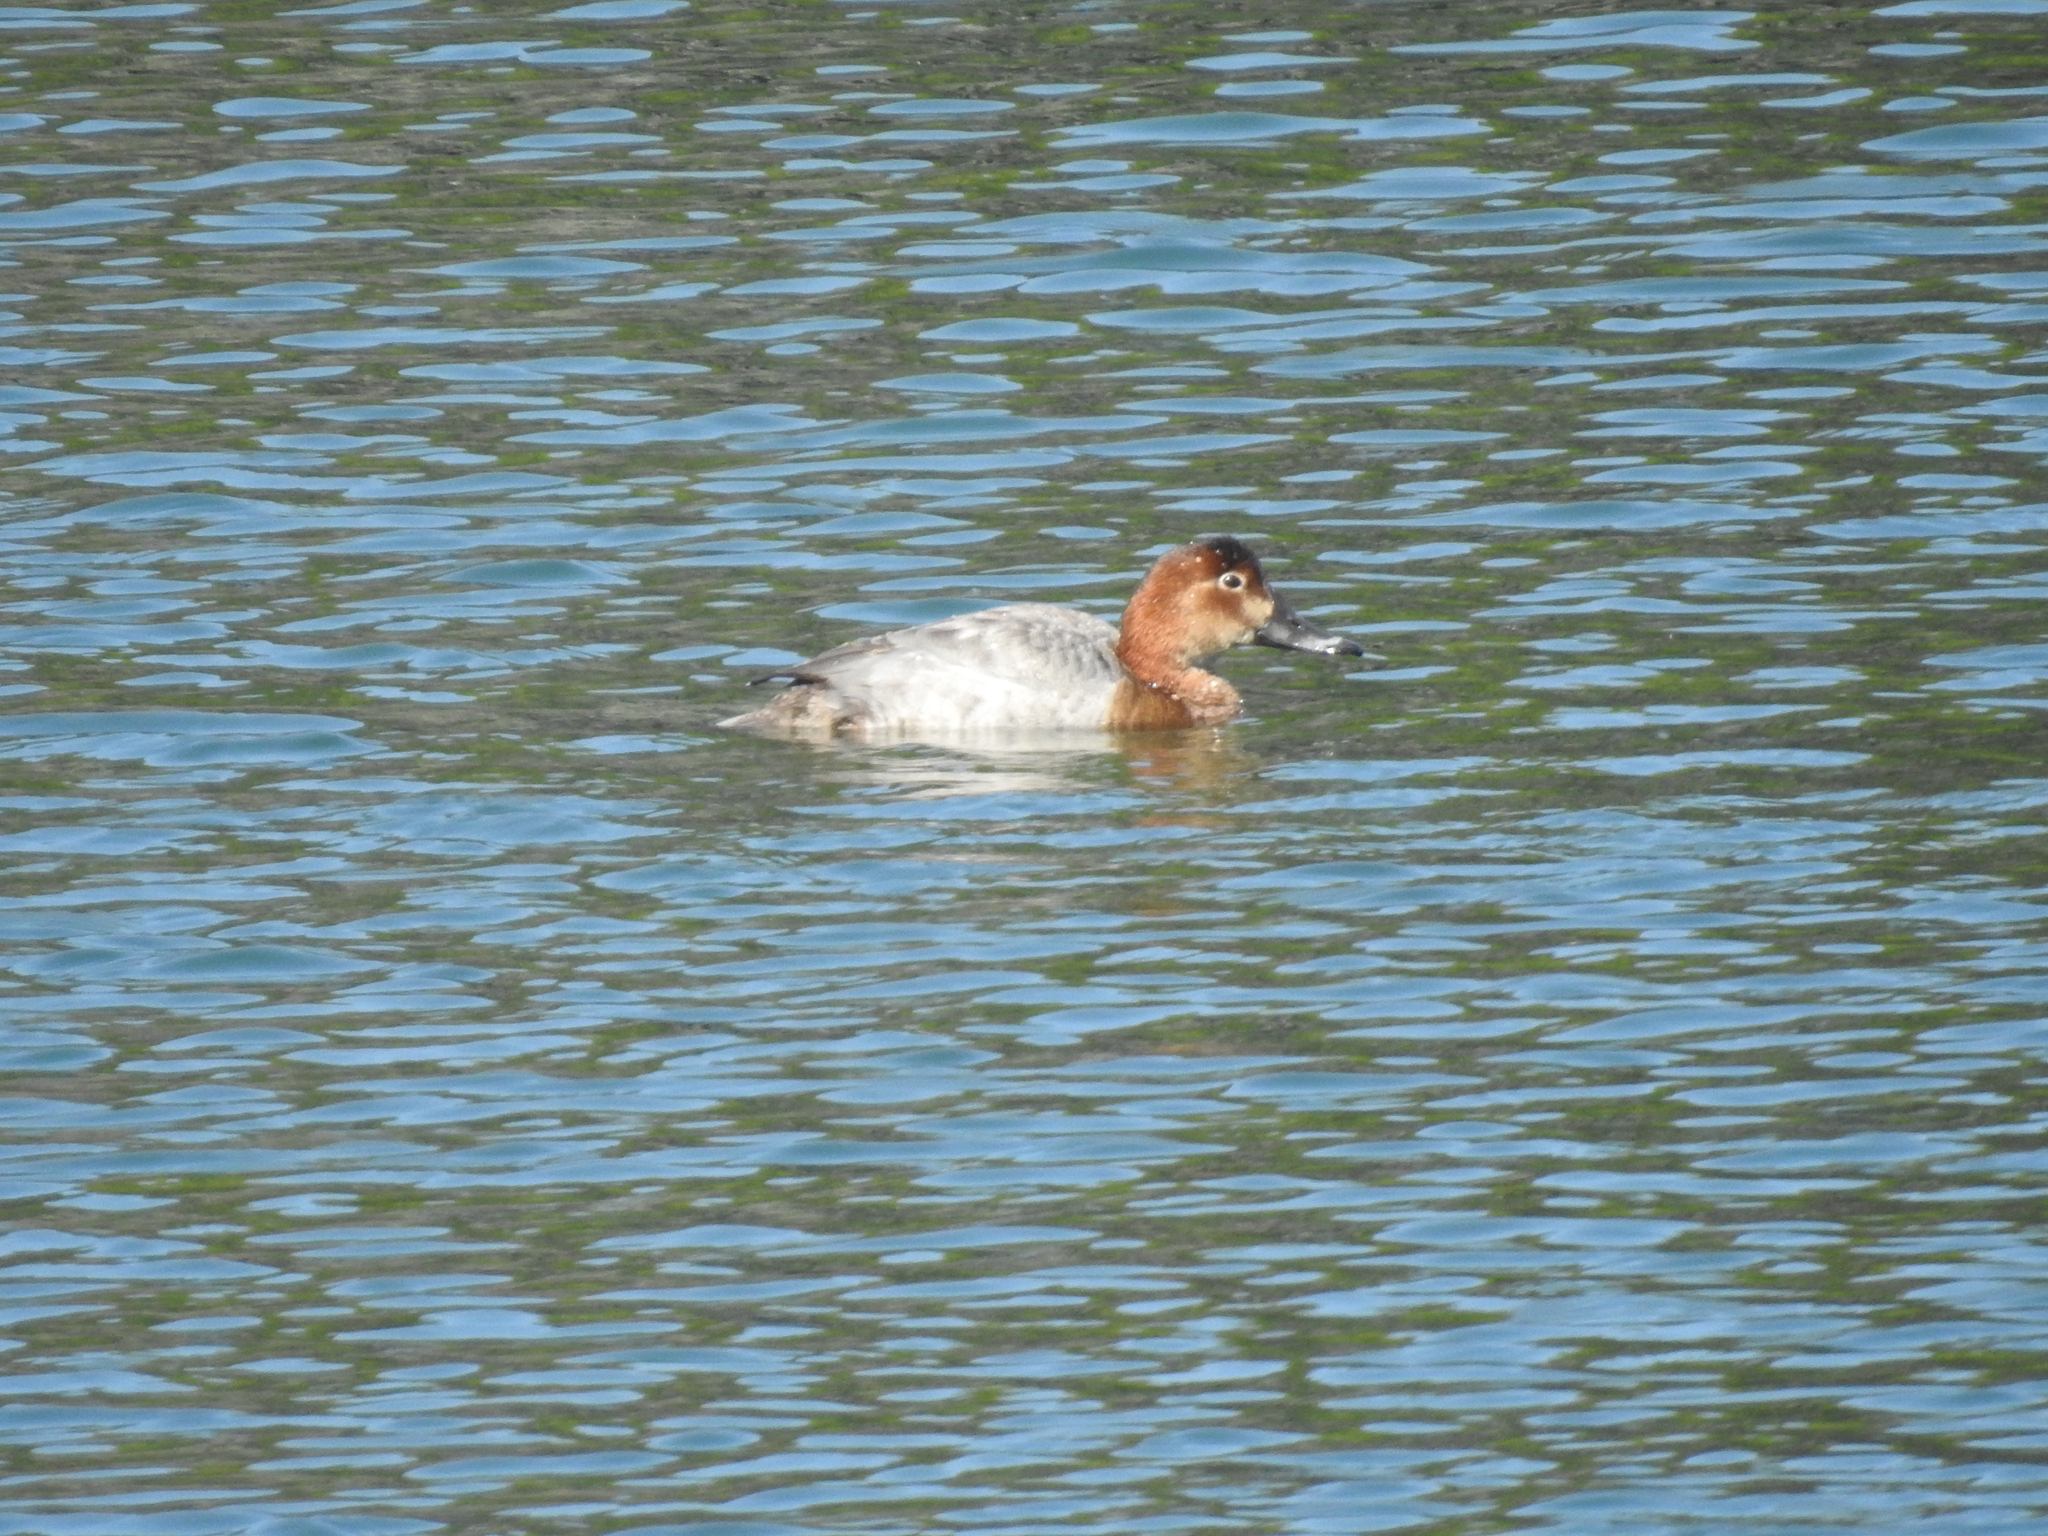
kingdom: Animalia
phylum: Chordata
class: Aves
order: Anseriformes
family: Anatidae
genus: Aythya
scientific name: Aythya ferina
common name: Common pochard
